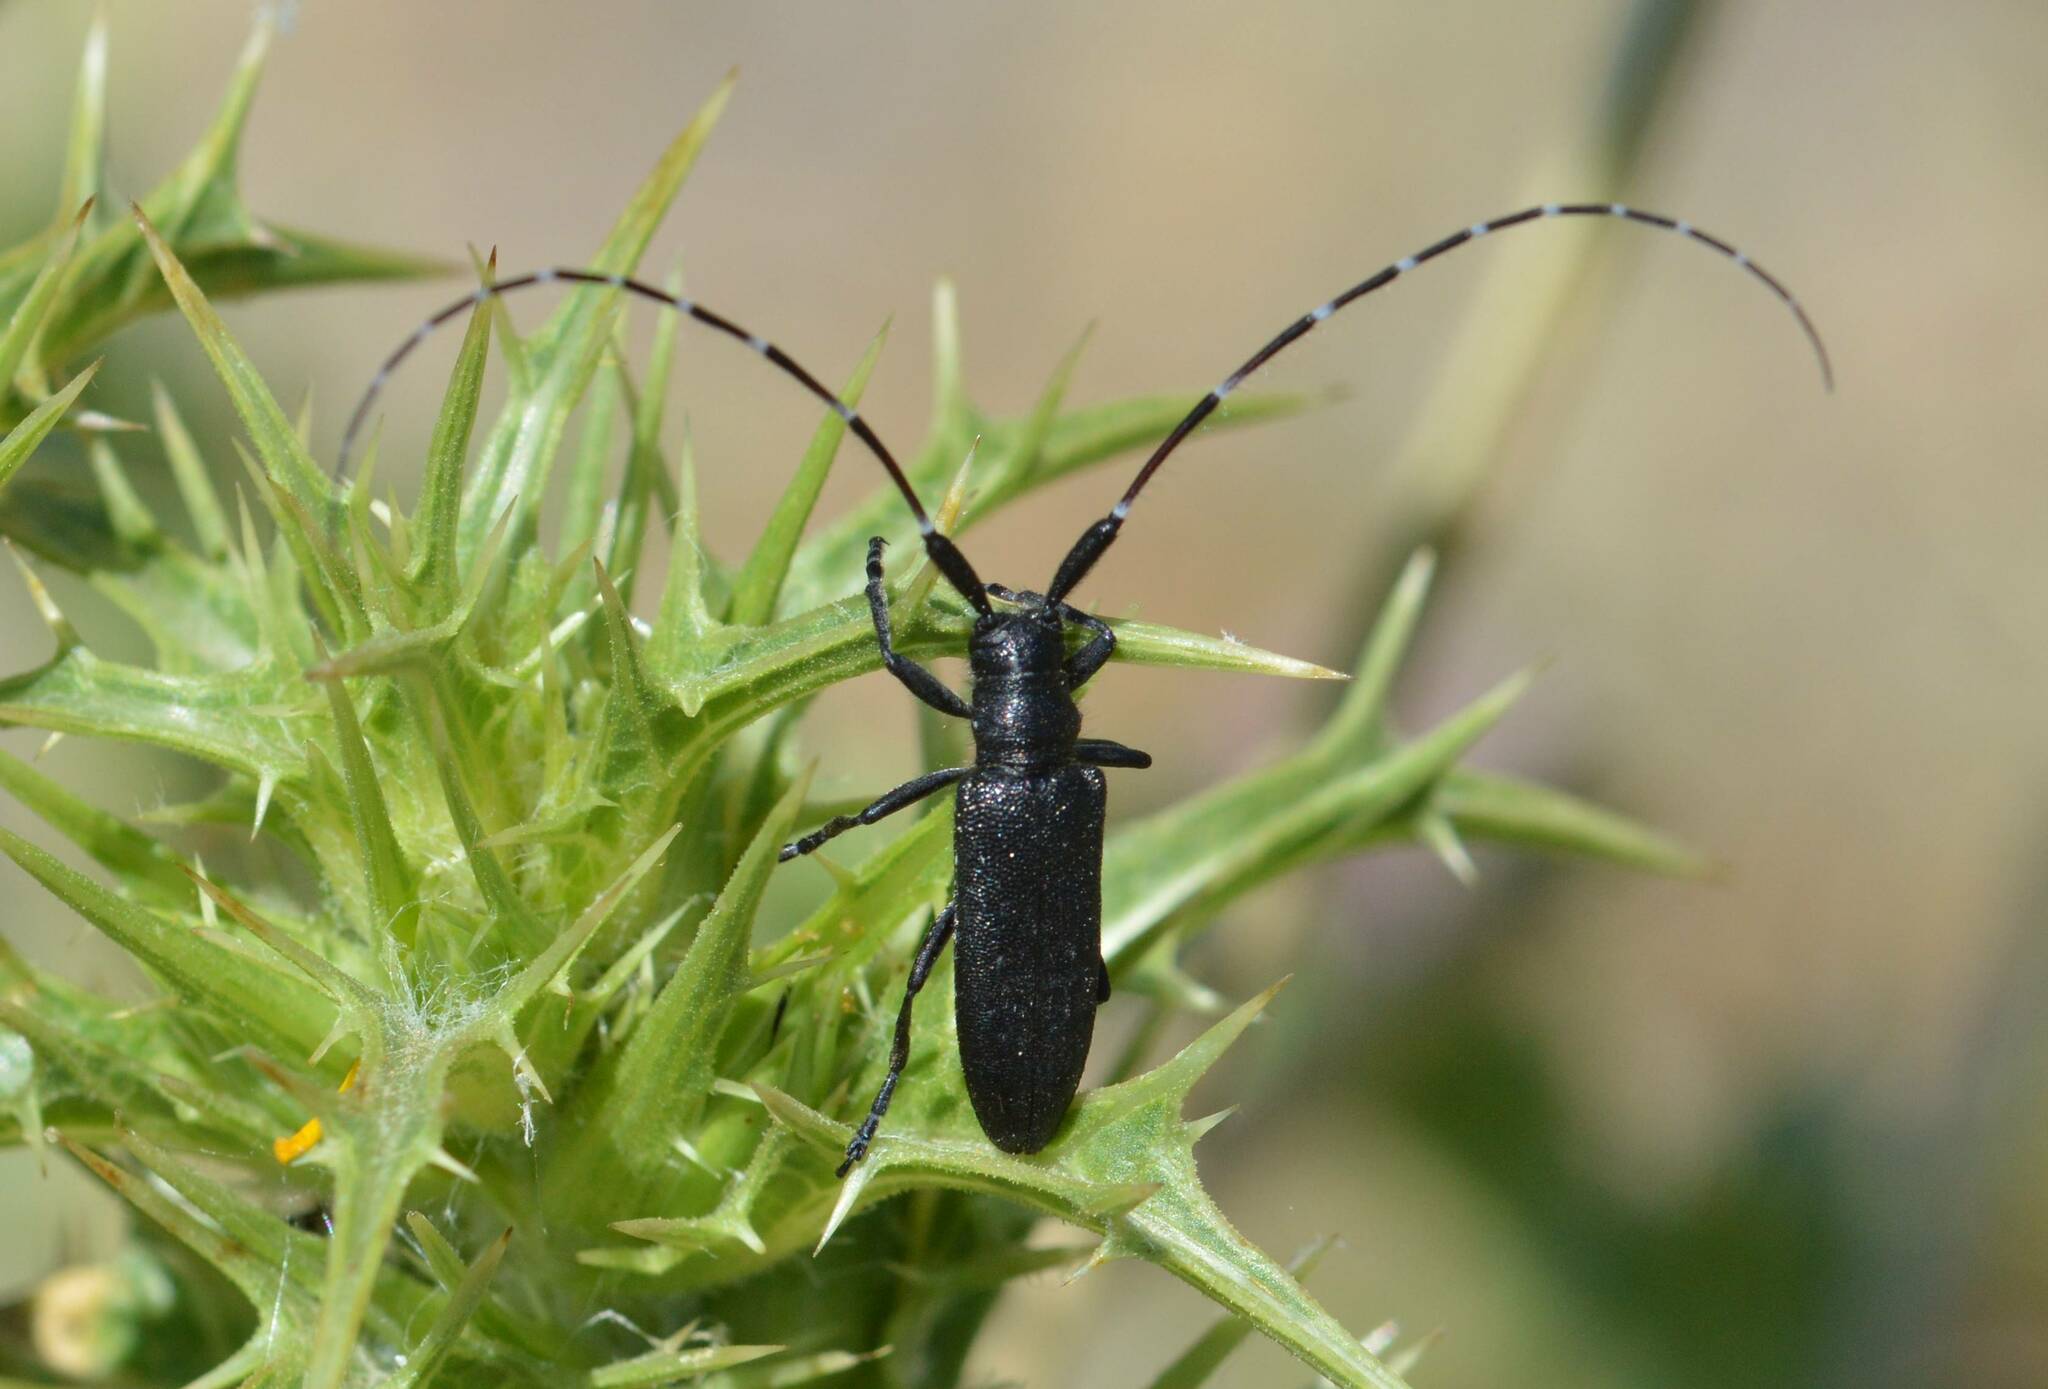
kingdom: Animalia
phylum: Arthropoda
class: Insecta
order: Coleoptera
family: Cerambycidae
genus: Agapanthia
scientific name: Agapanthia irrorata
